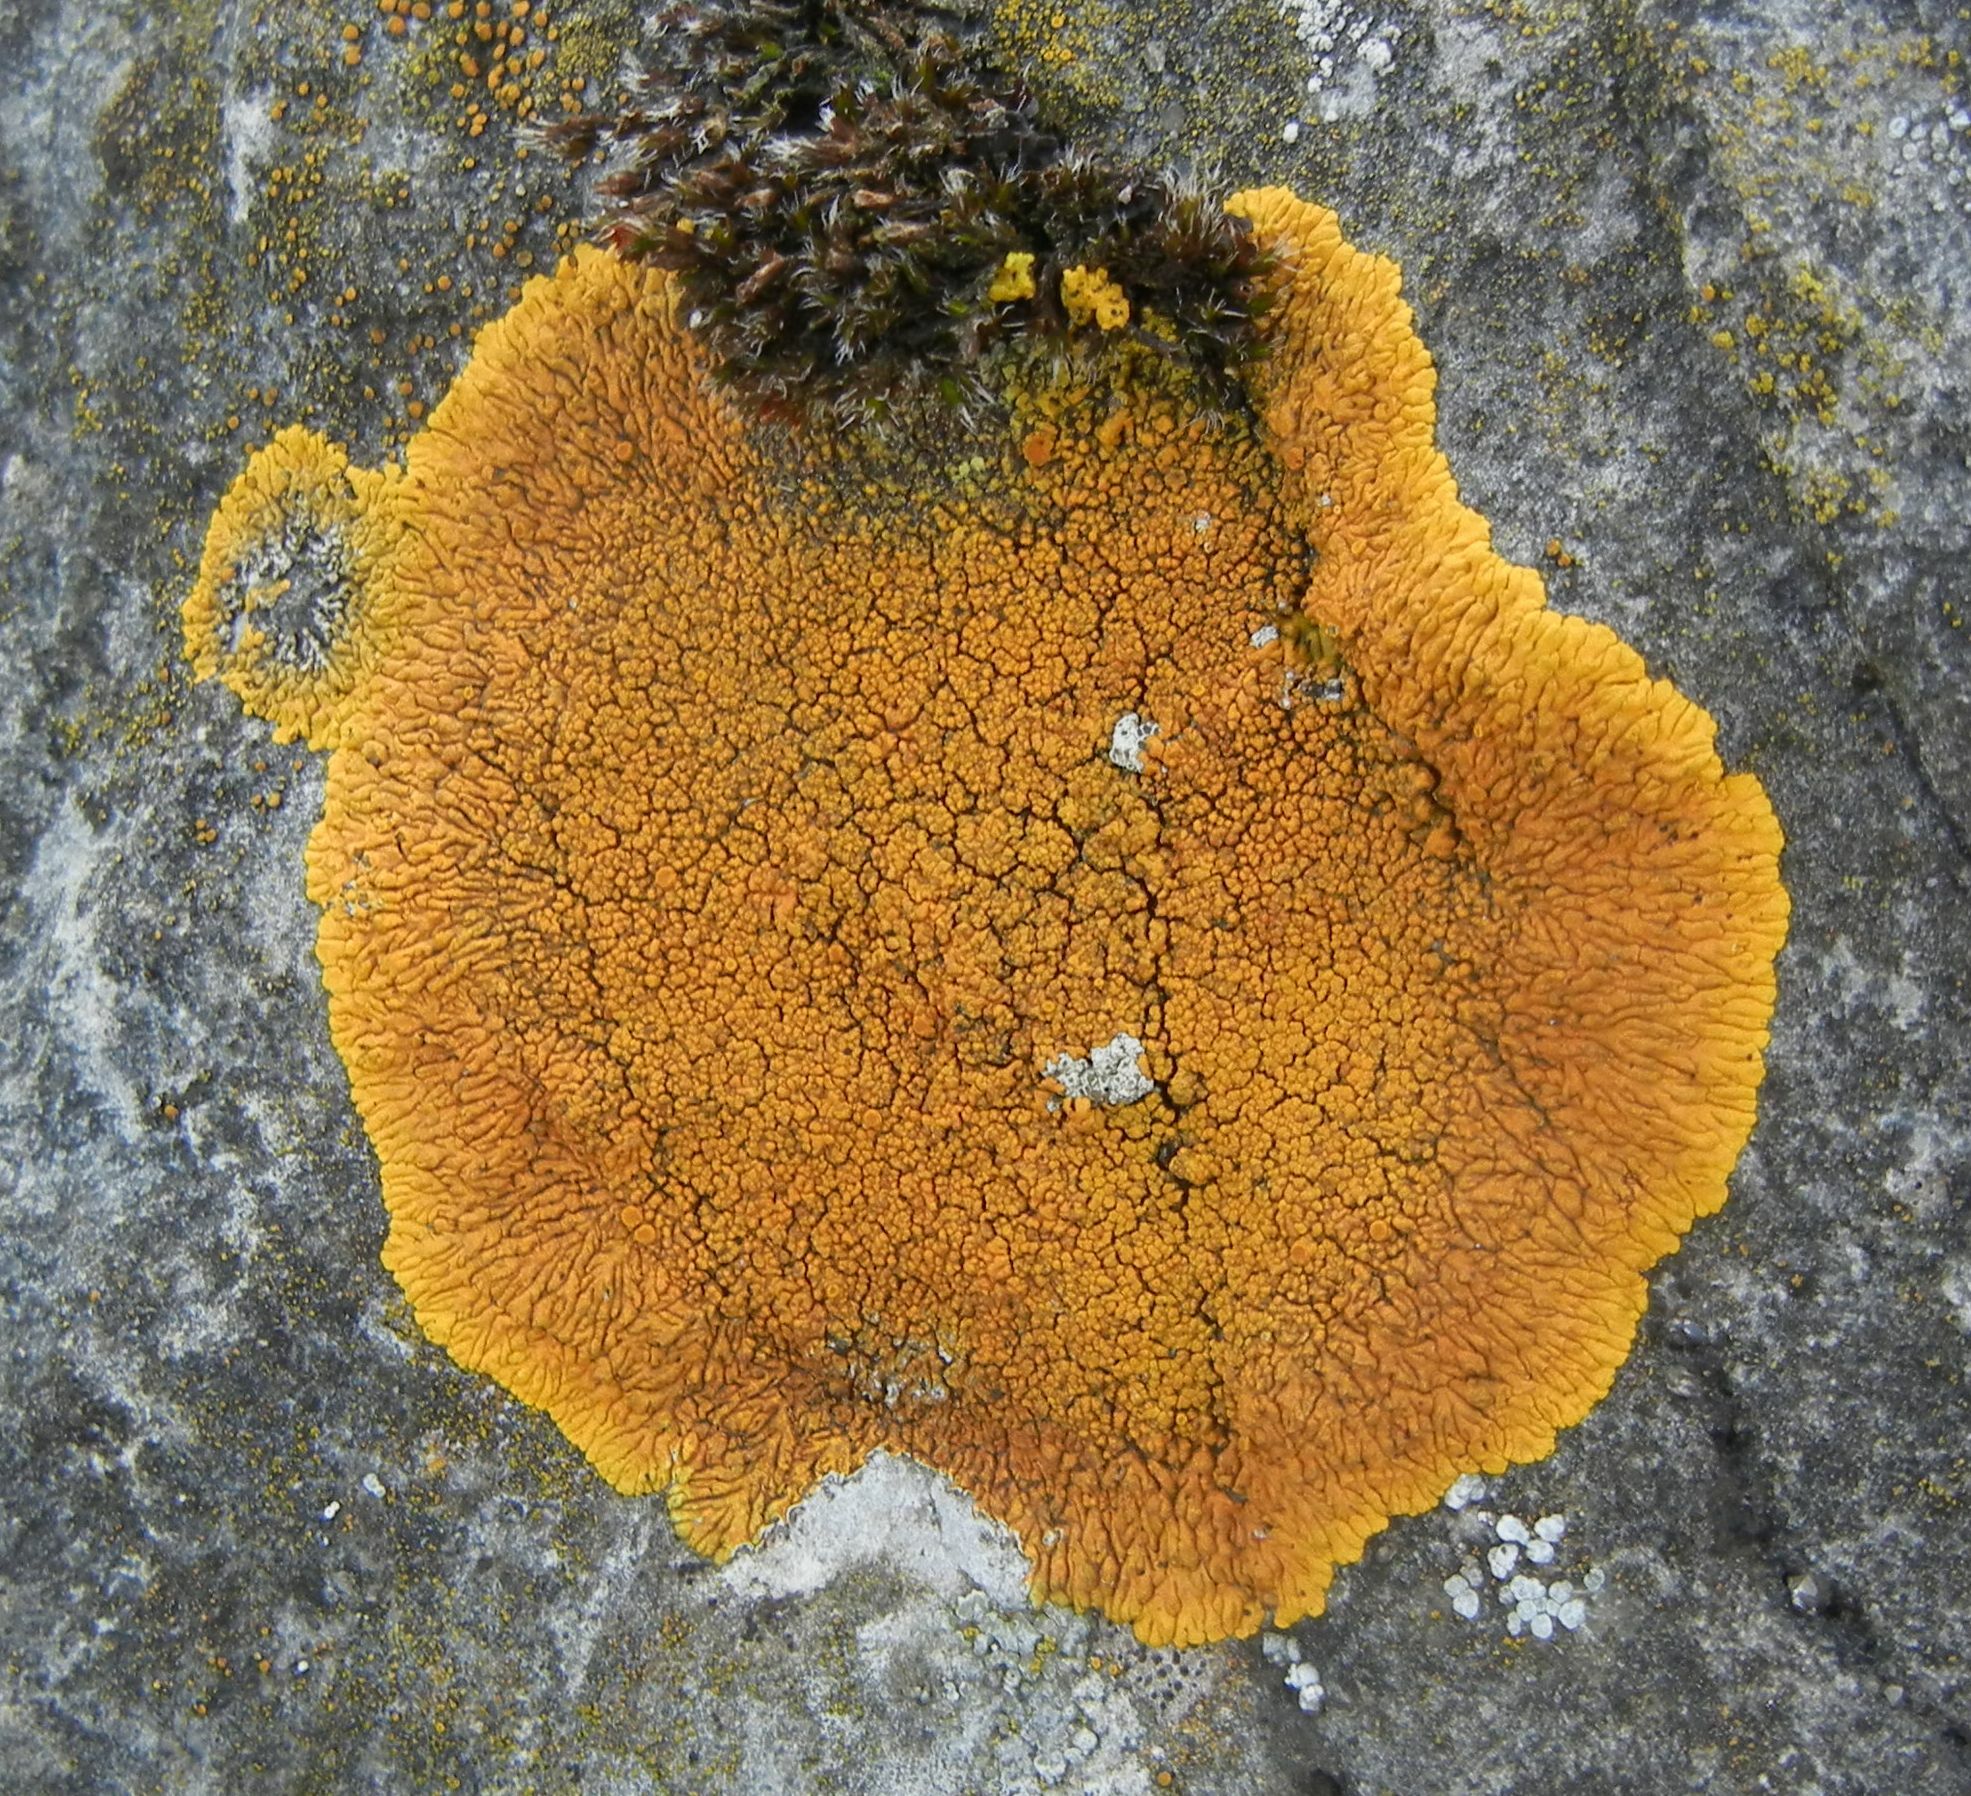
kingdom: Fungi
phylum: Ascomycota
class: Lecanoromycetes
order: Teloschistales
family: Teloschistaceae
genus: Variospora
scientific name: Variospora flavescens
